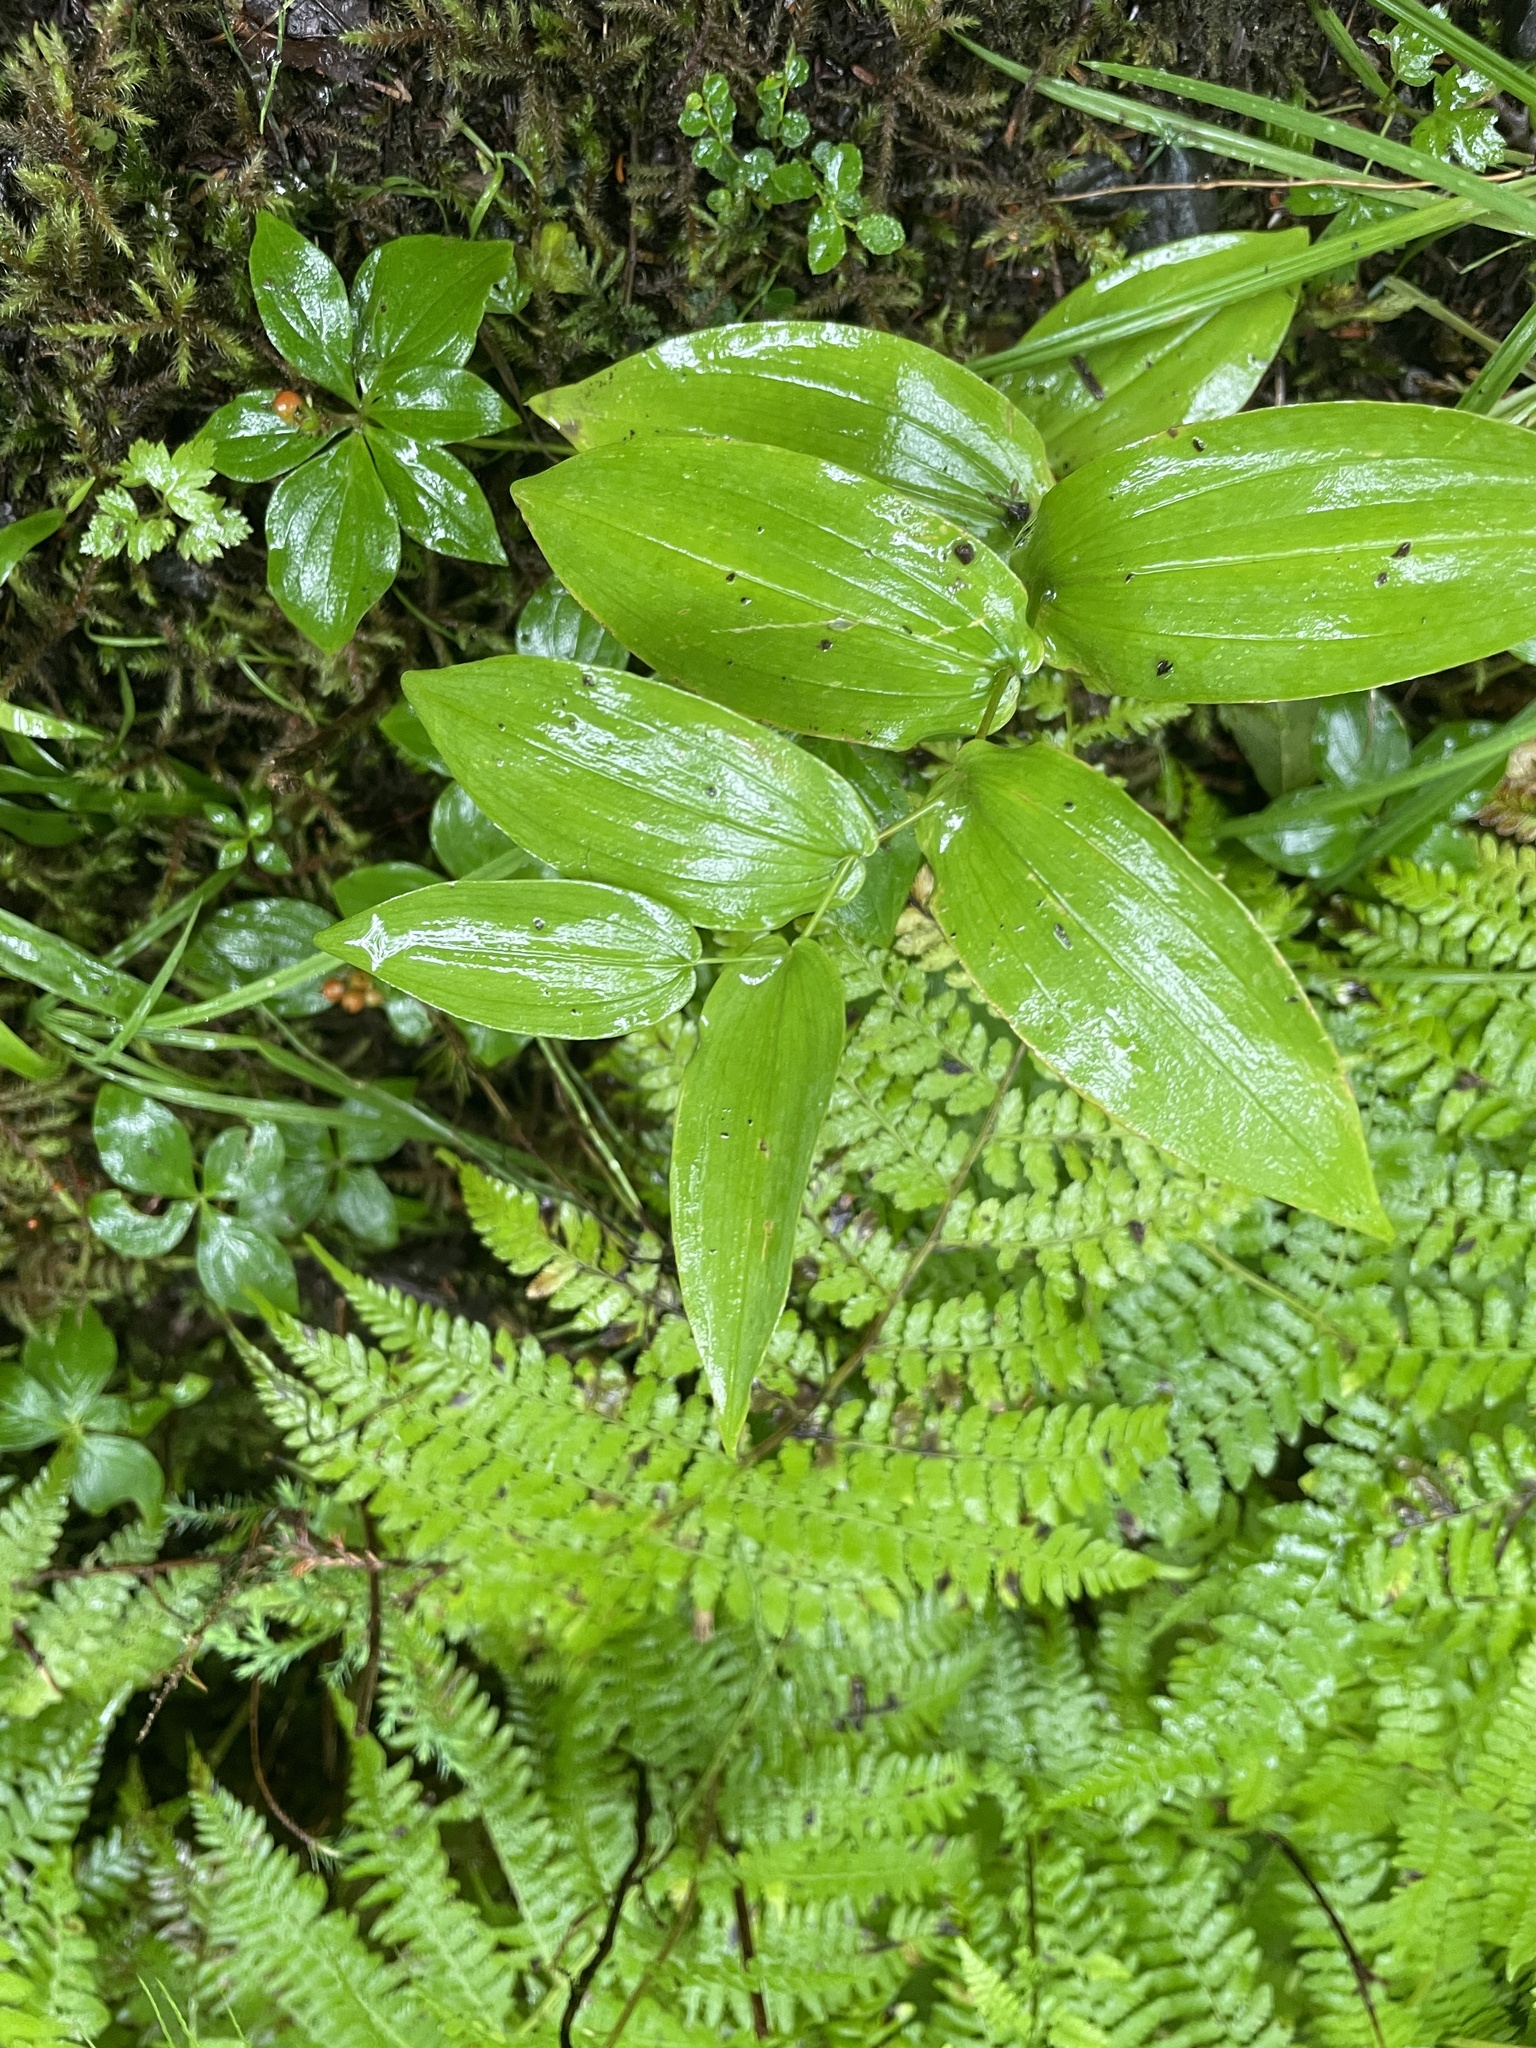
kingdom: Plantae
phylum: Tracheophyta
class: Liliopsida
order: Liliales
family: Liliaceae
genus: Streptopus
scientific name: Streptopus amplexifolius
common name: Clasp twisted stalk
